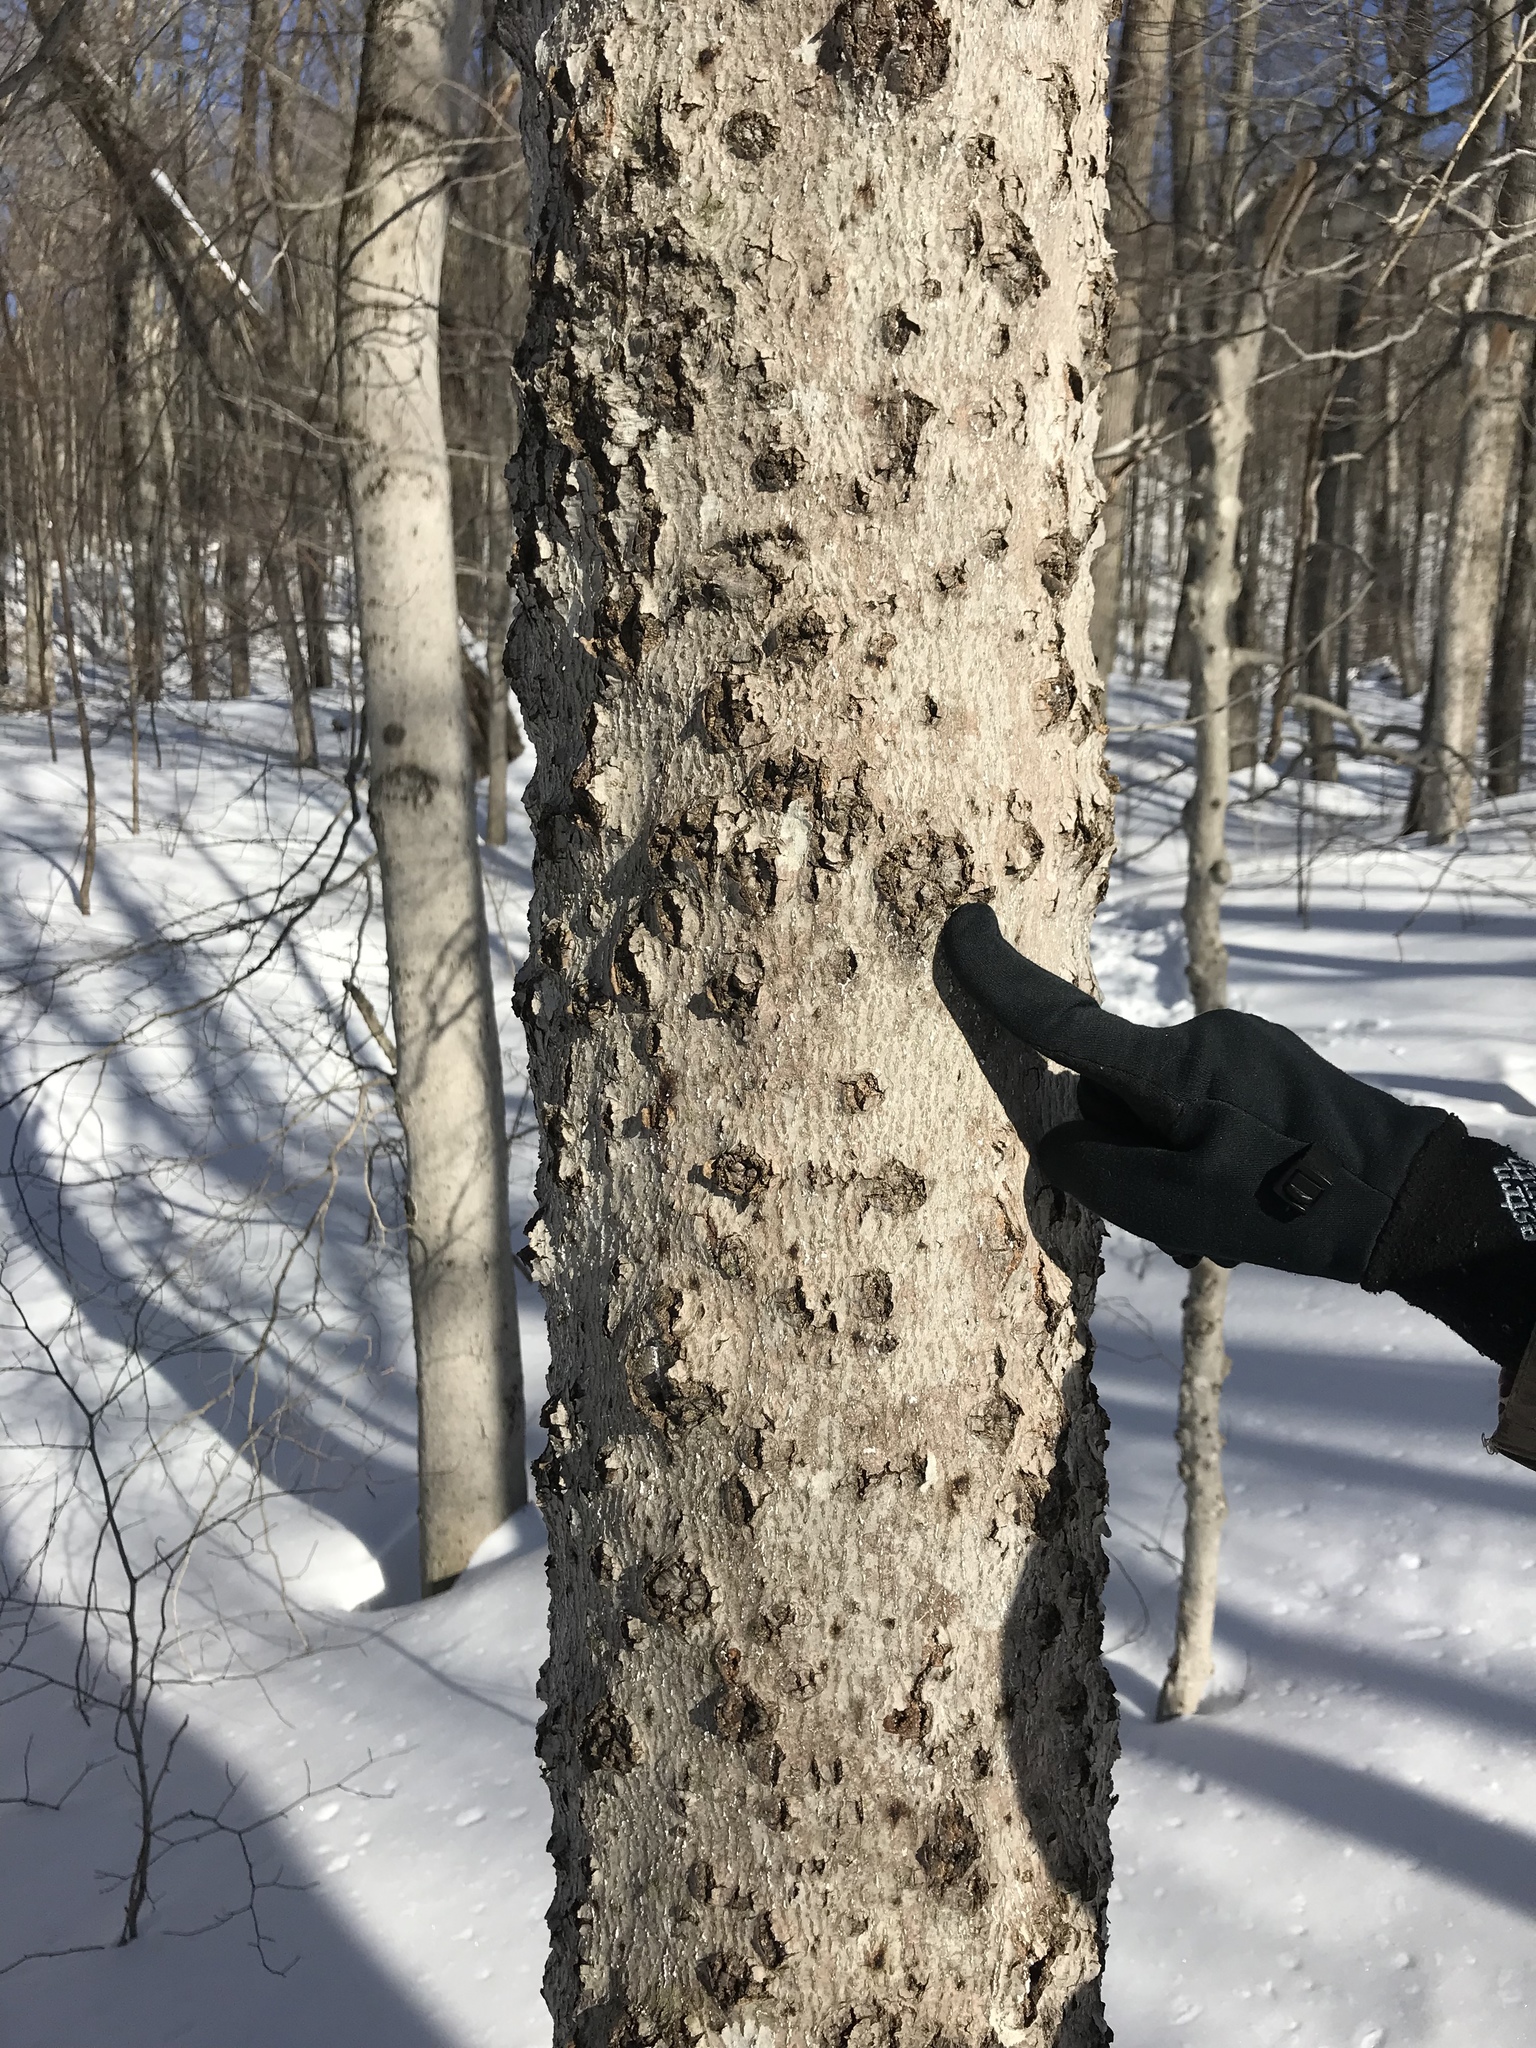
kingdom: Plantae
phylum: Tracheophyta
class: Magnoliopsida
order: Fagales
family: Fagaceae
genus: Fagus
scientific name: Fagus grandifolia
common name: American beech
